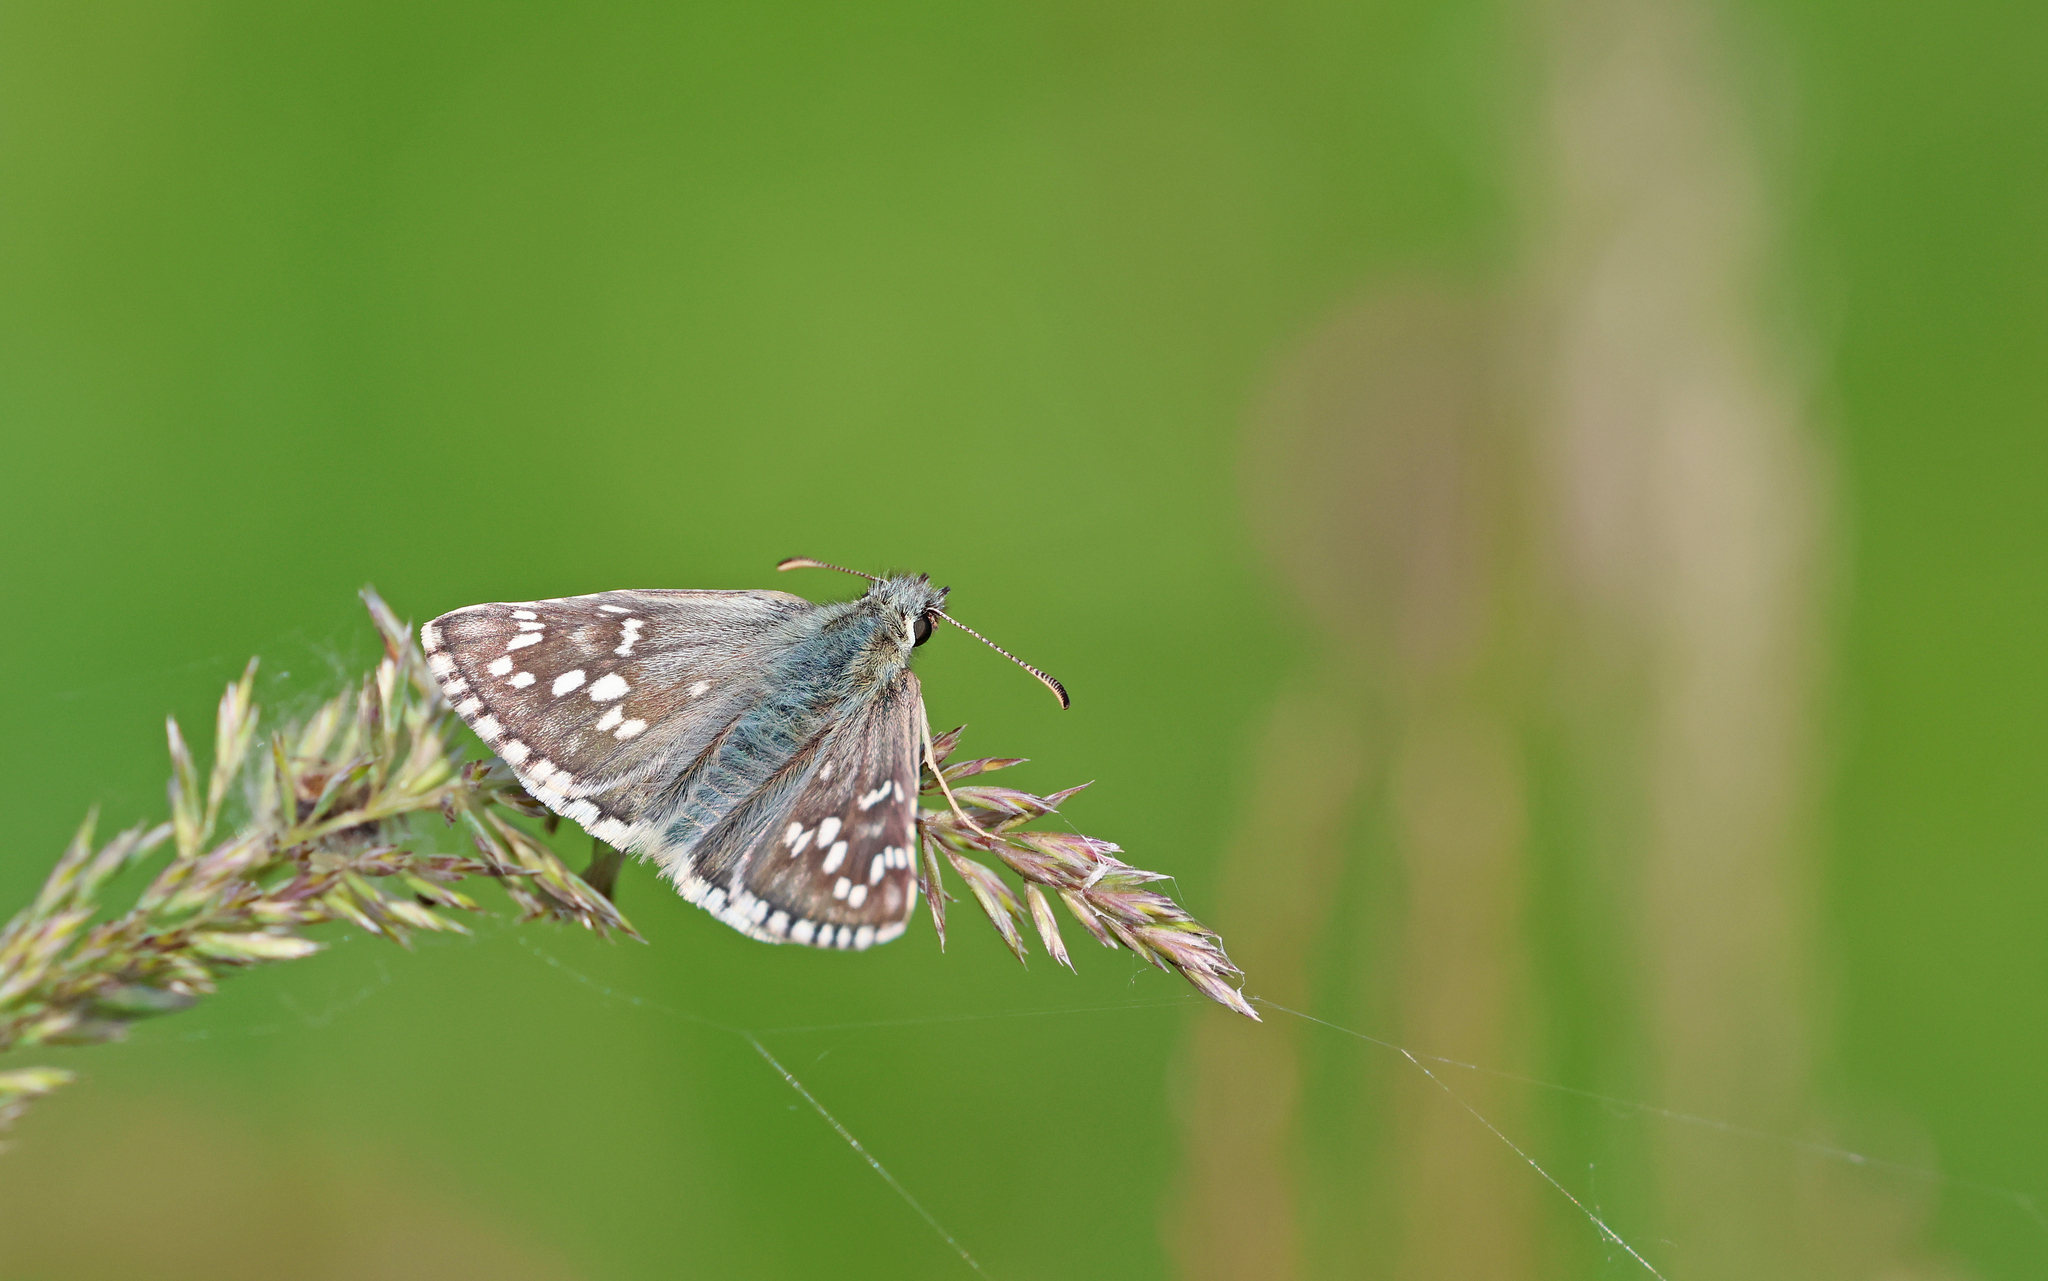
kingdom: Animalia
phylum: Arthropoda
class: Insecta
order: Lepidoptera
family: Hesperiidae
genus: Pyrgus
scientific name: Pyrgus fritillarius
